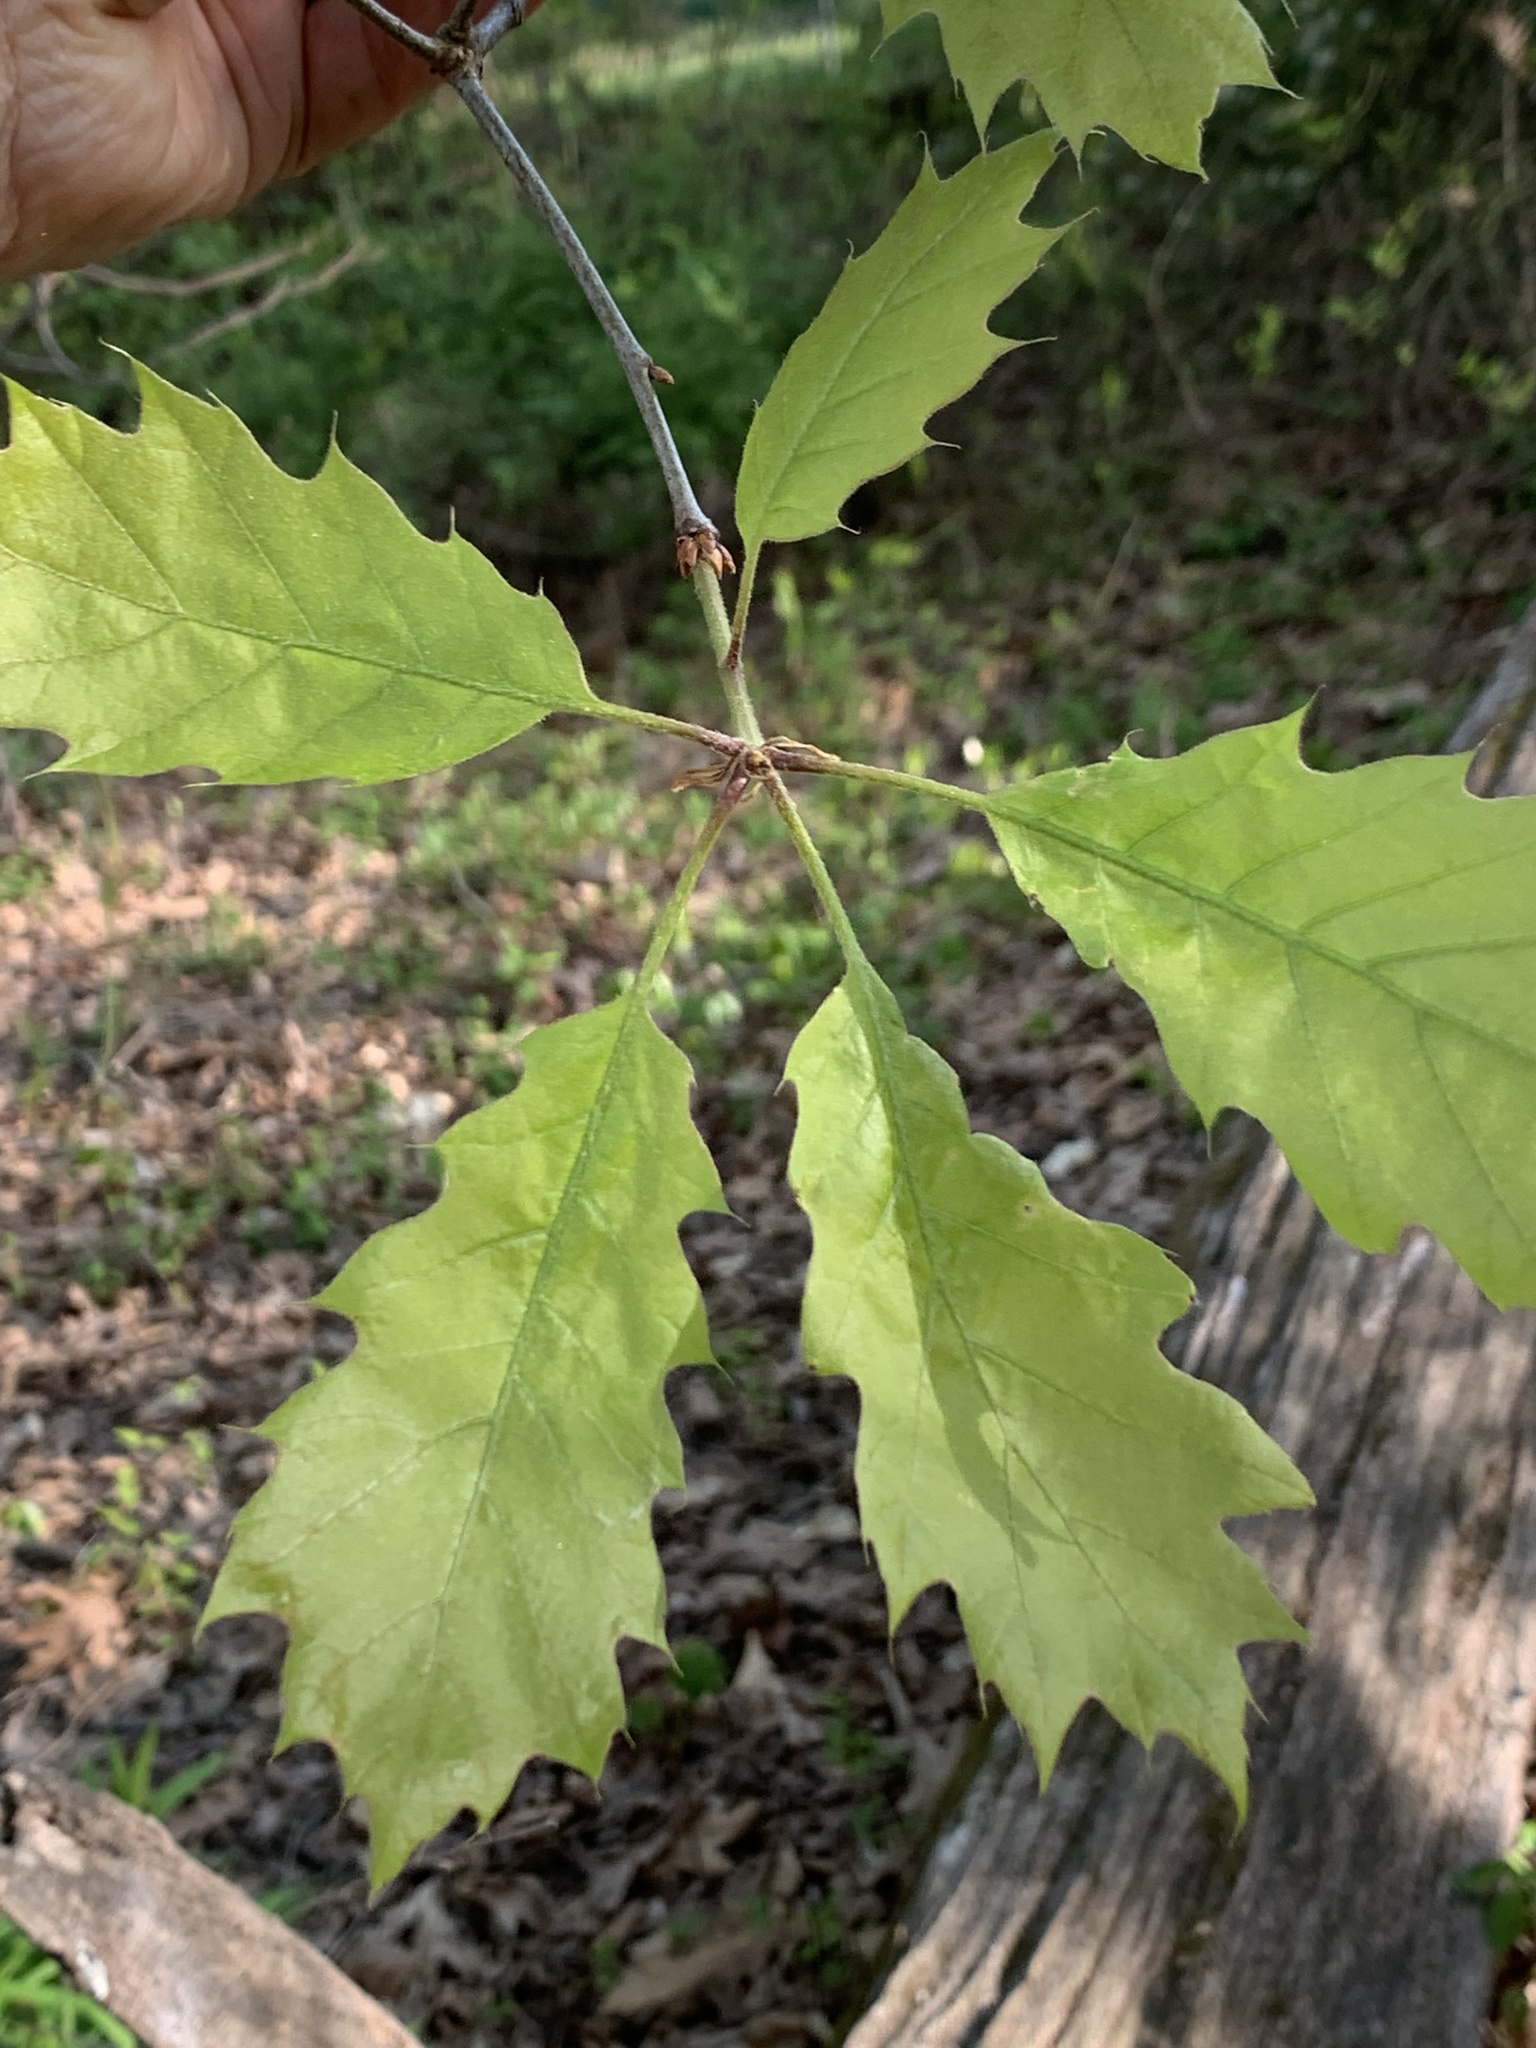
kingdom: Plantae
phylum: Tracheophyta
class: Magnoliopsida
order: Fagales
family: Fagaceae
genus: Quercus
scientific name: Quercus rubra
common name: Red oak
